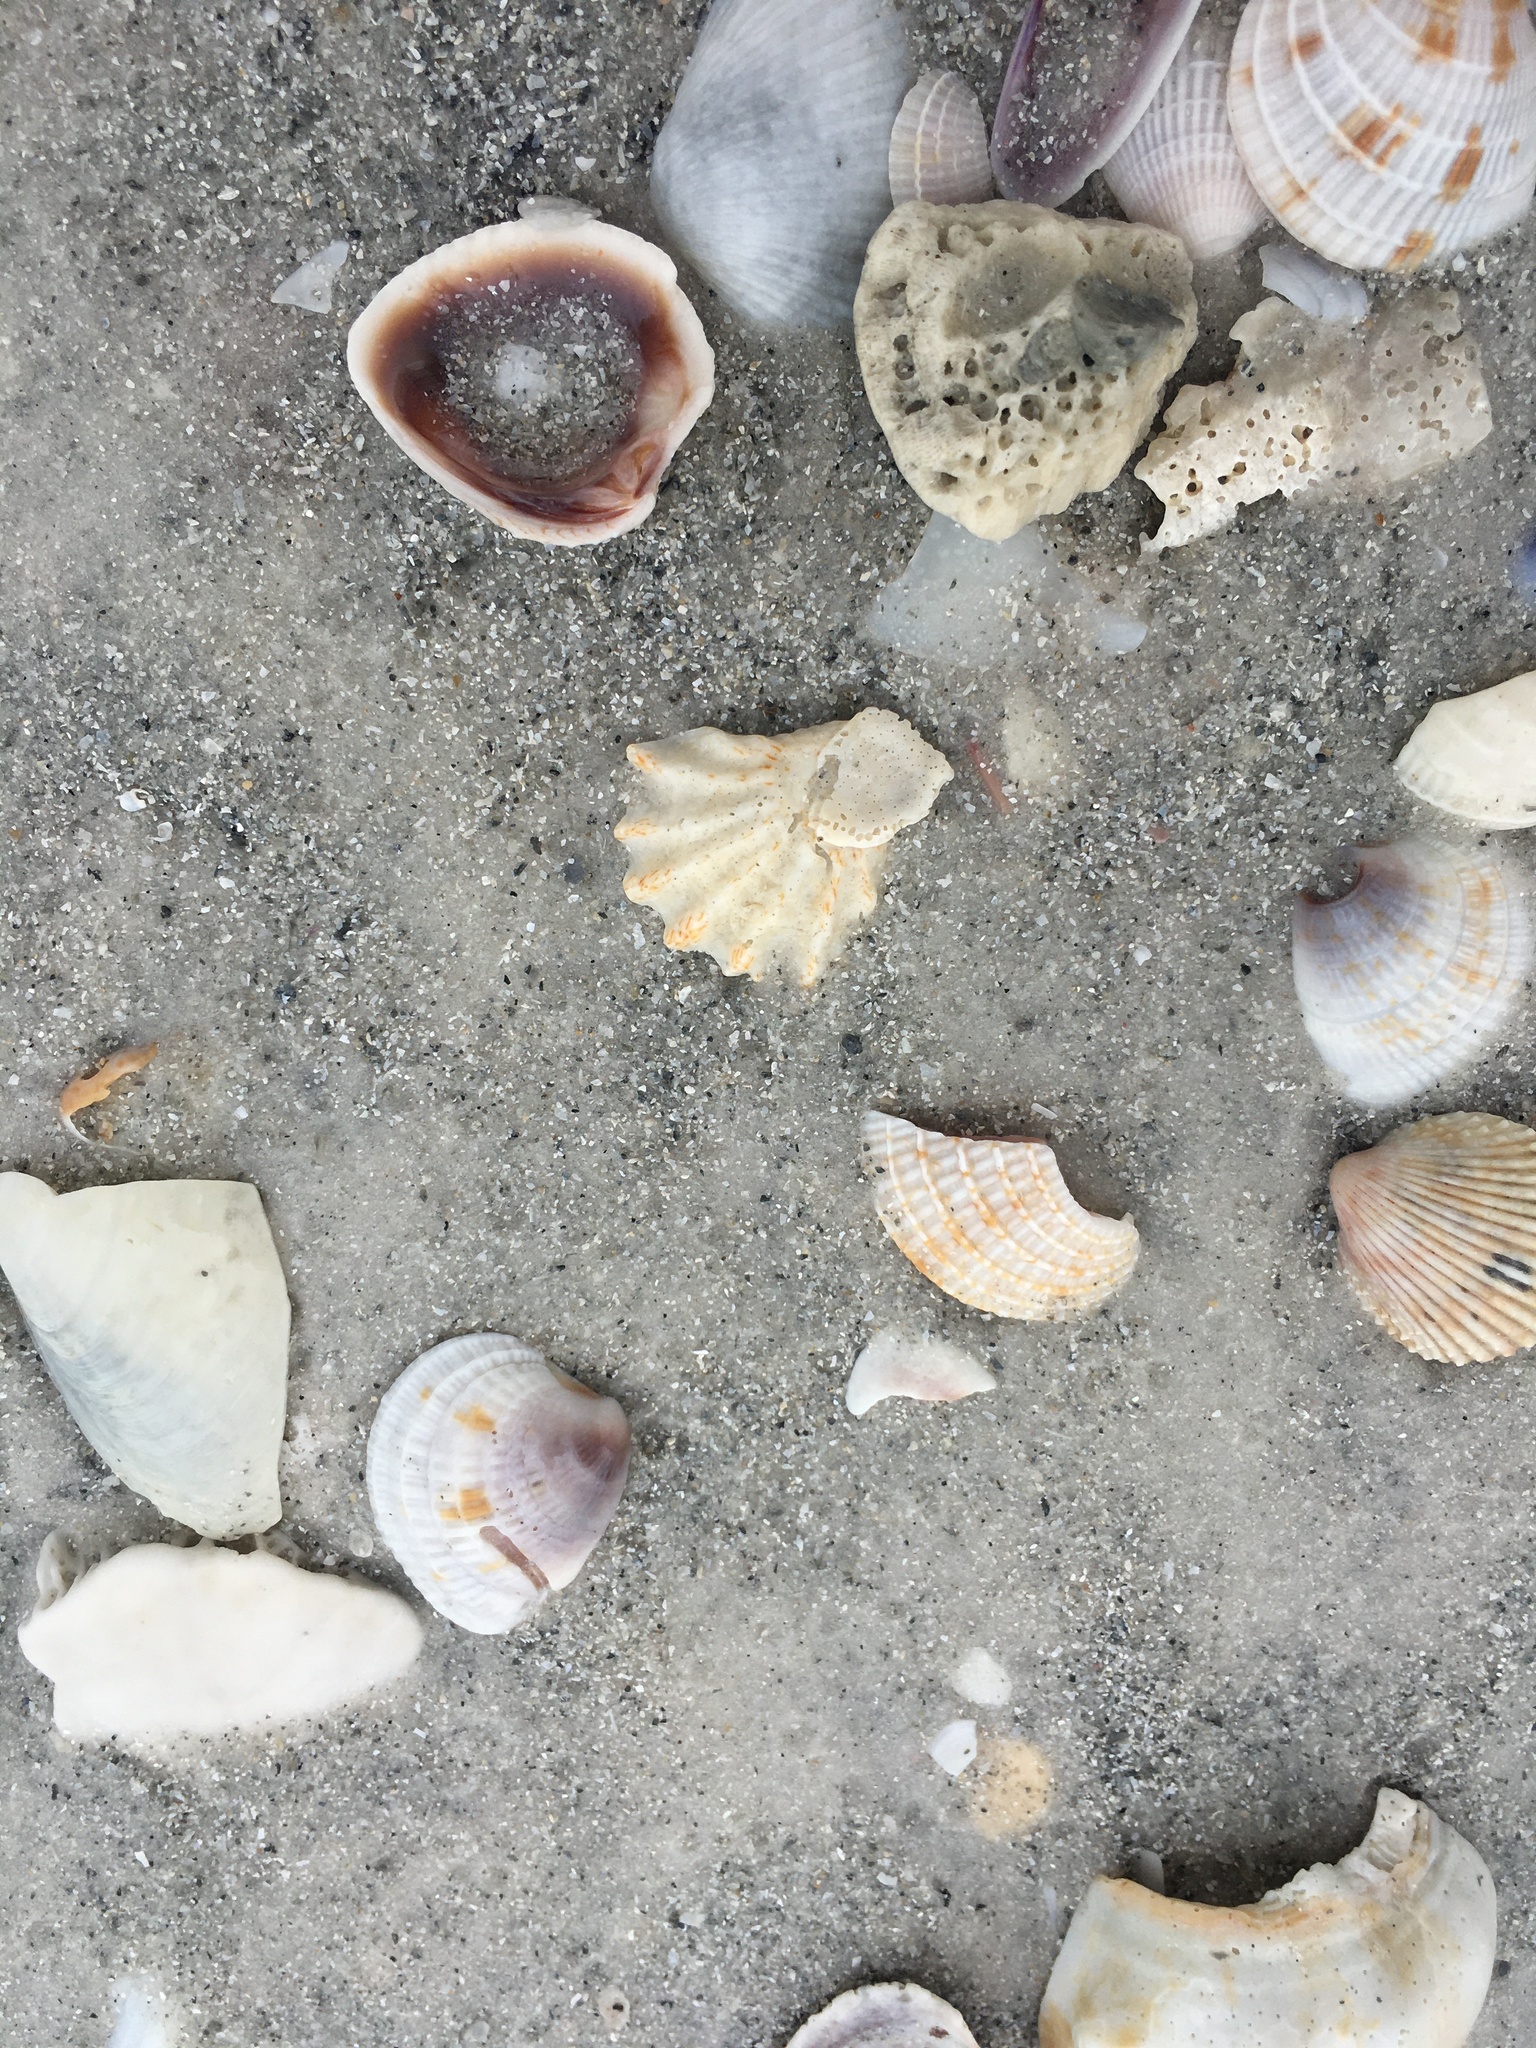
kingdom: Animalia
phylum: Mollusca
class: Bivalvia
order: Pectinida
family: Plicatulidae
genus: Plicatula
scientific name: Plicatula gibbosa
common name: Atlantic kitten's paw
